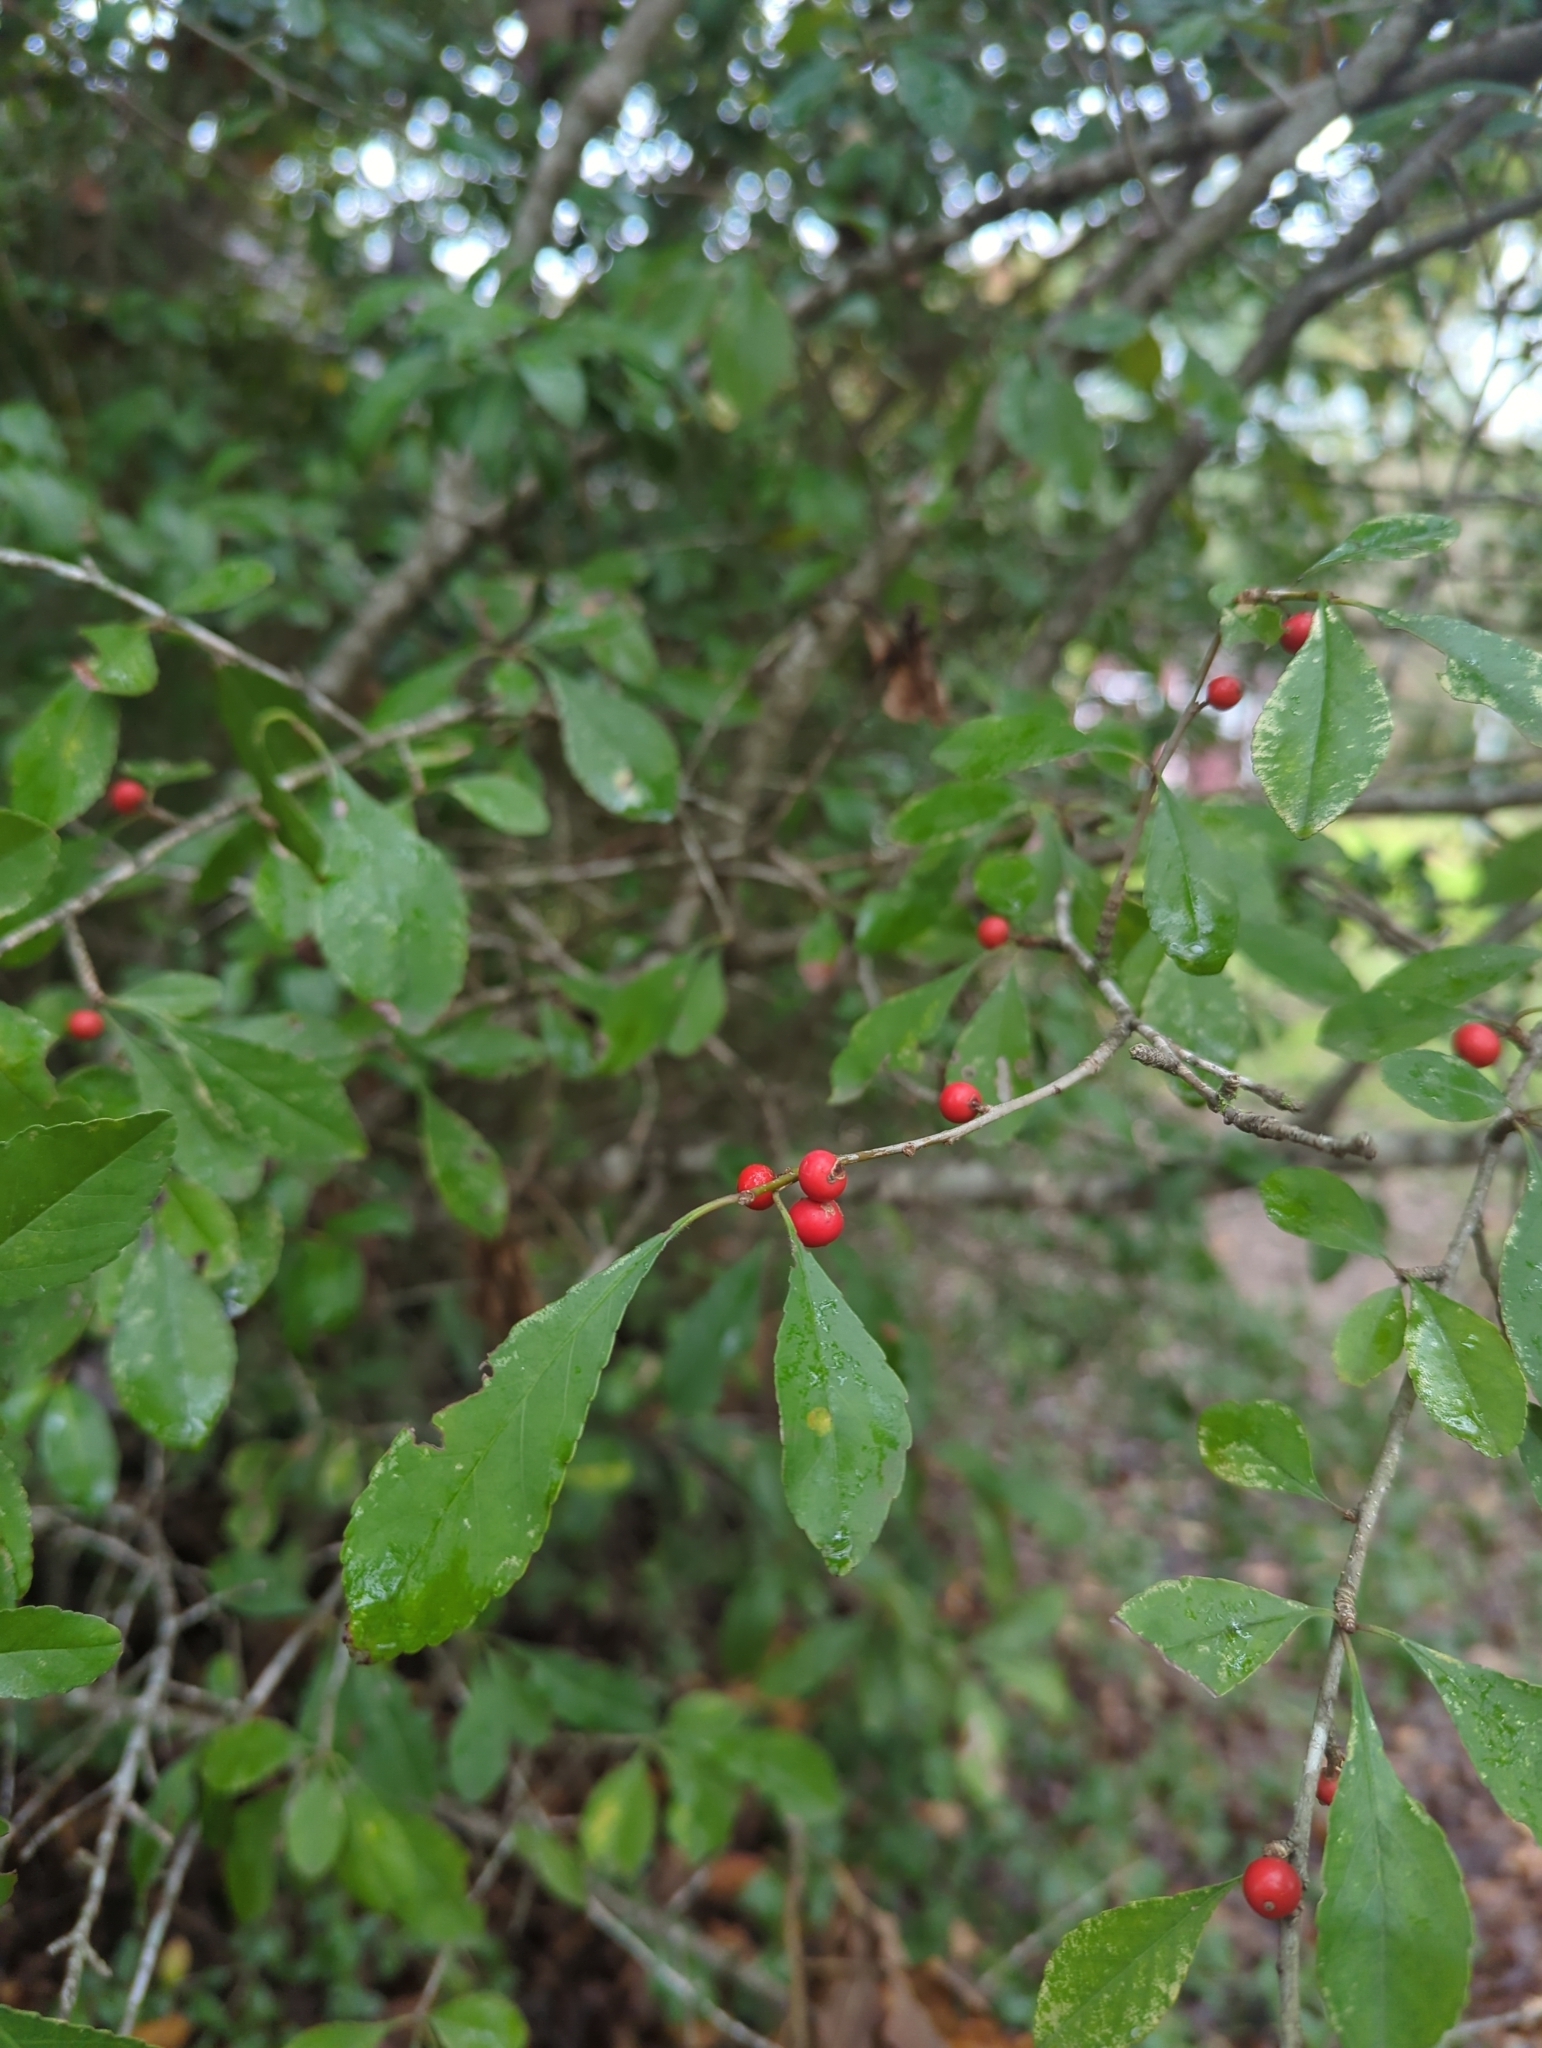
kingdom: Plantae
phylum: Tracheophyta
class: Magnoliopsida
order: Aquifoliales
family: Aquifoliaceae
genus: Ilex
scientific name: Ilex decidua
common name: Possum-haw
